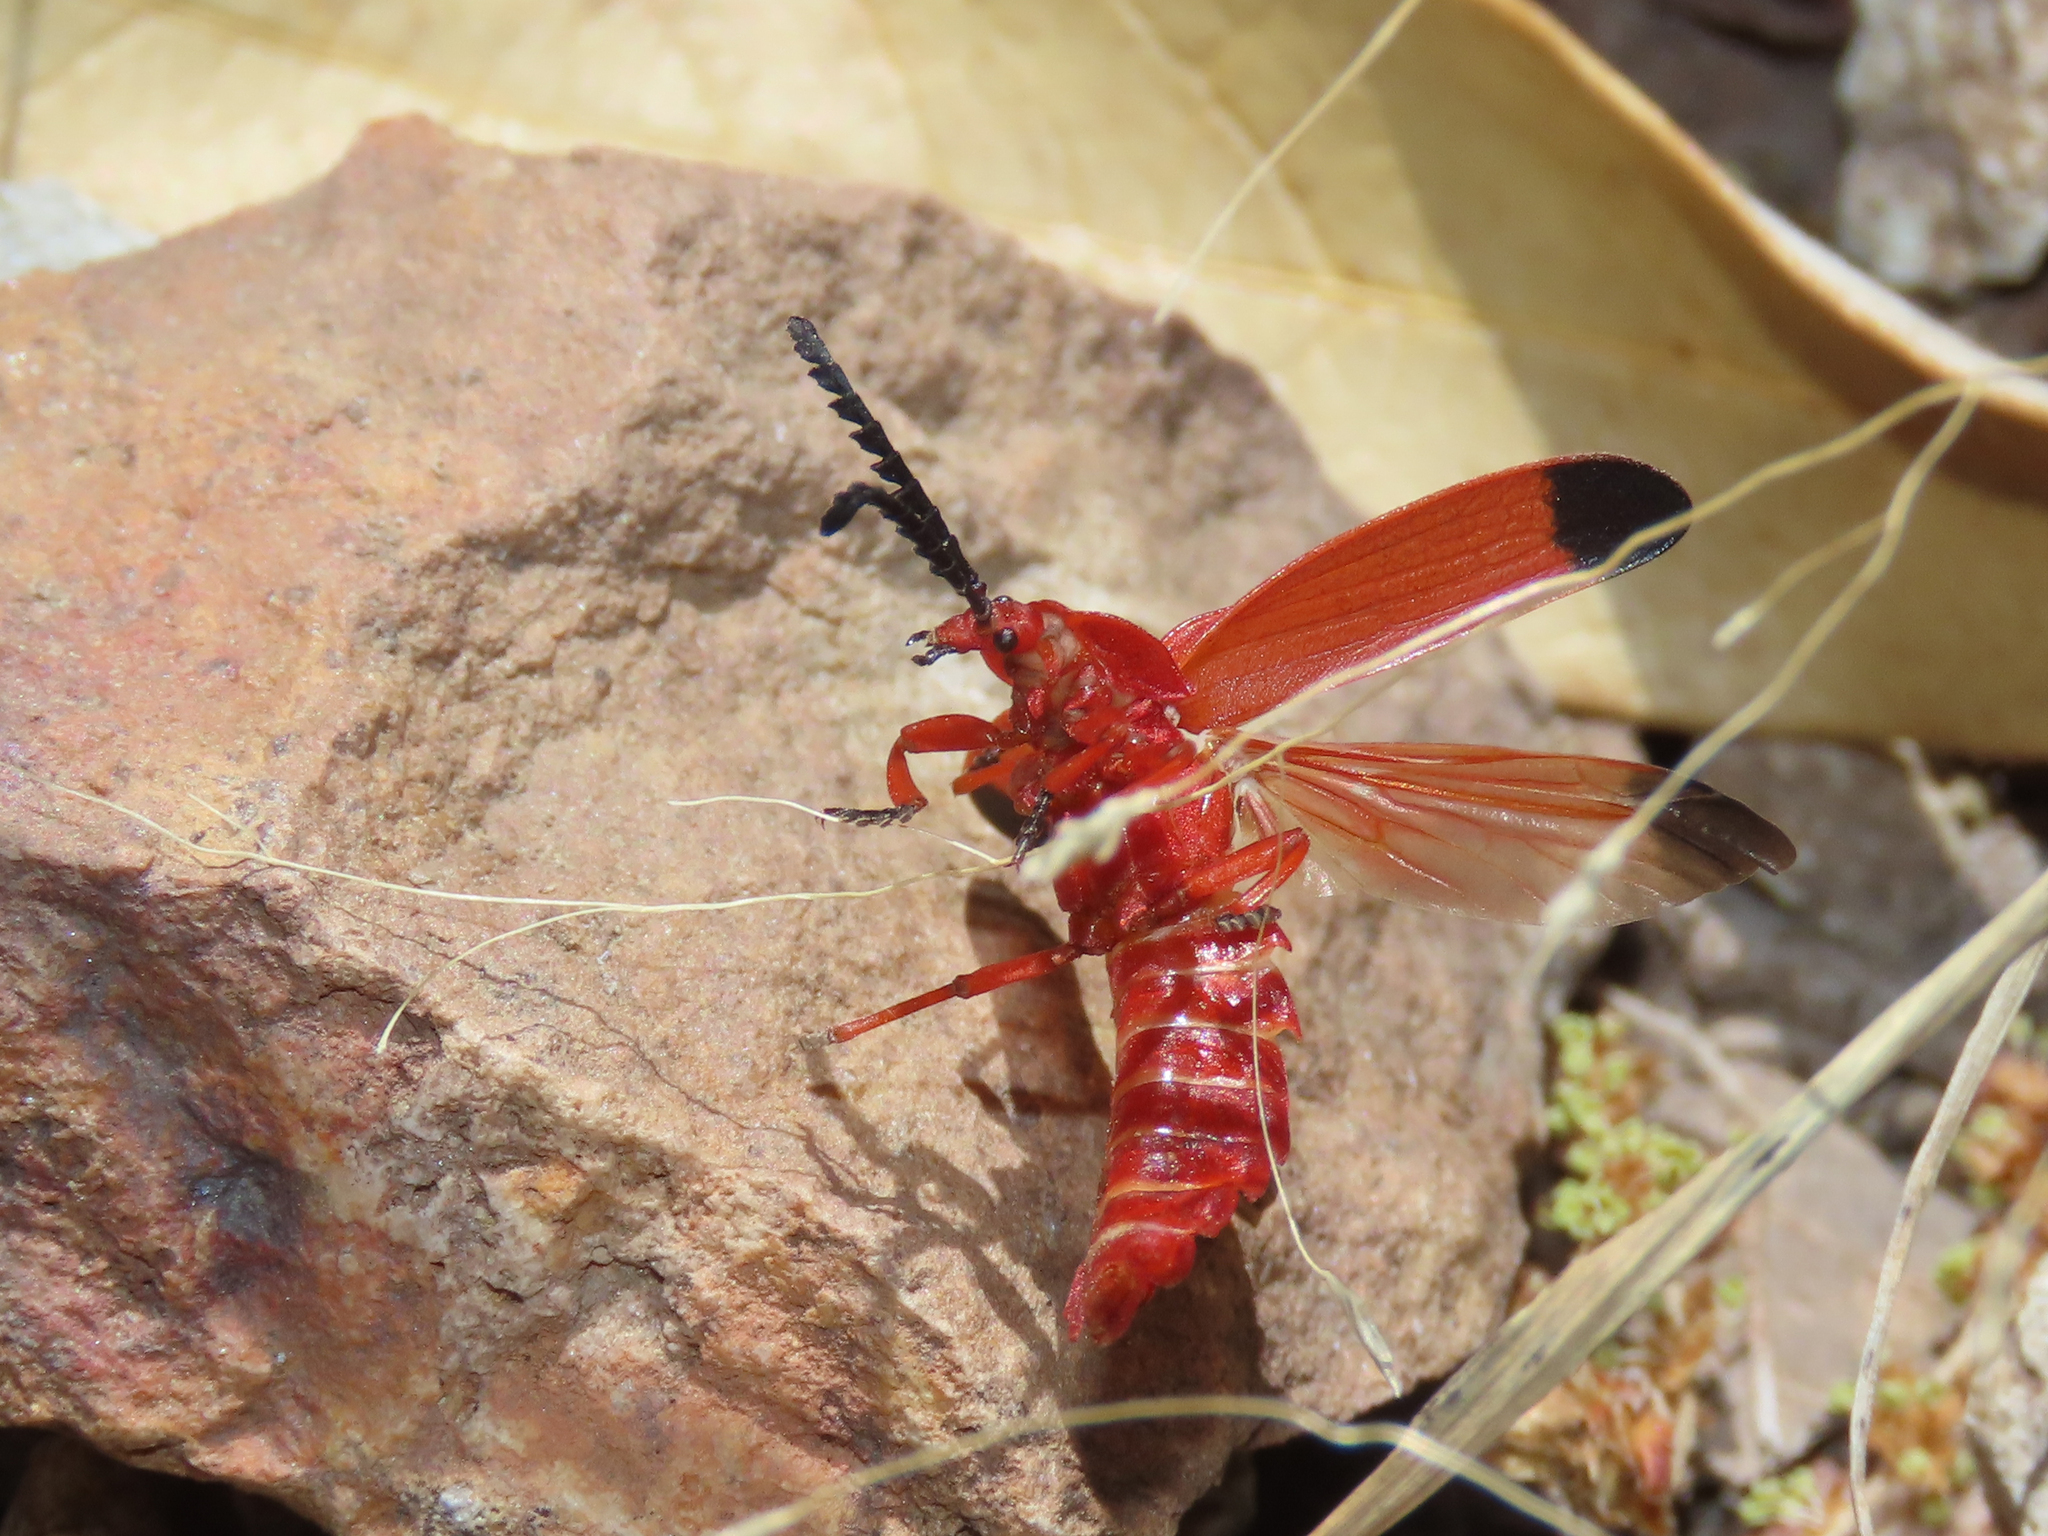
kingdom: Animalia
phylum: Arthropoda
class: Insecta
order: Coleoptera
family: Lycidae
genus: Lycus
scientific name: Lycus sanguineus
